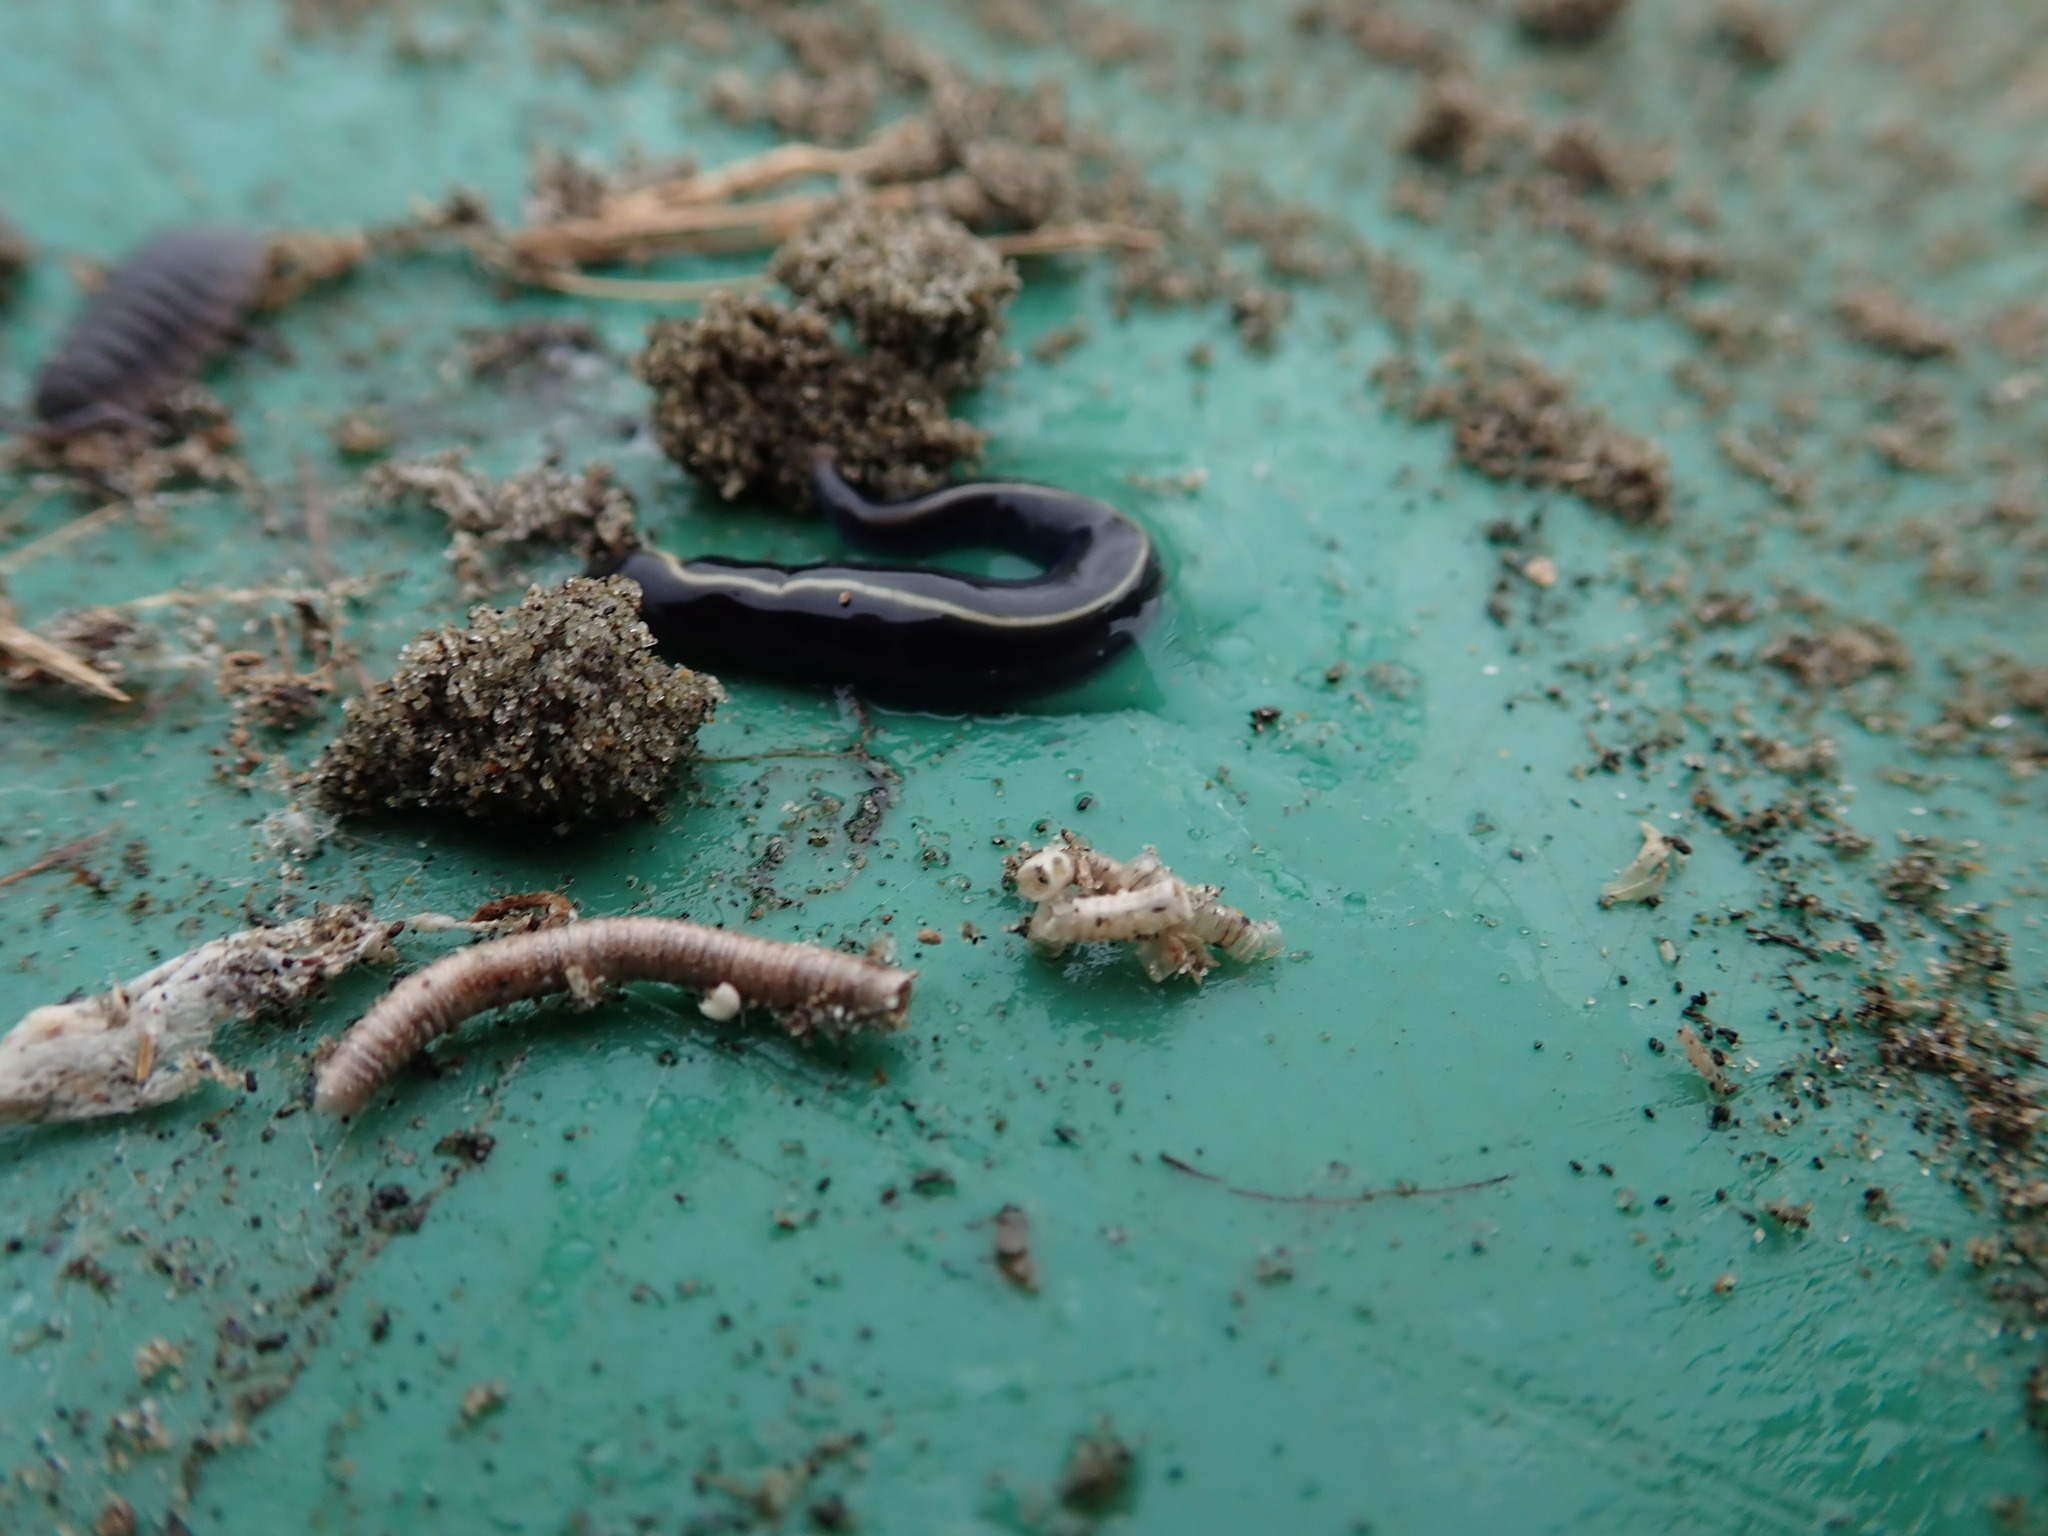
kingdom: Animalia
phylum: Platyhelminthes
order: Tricladida
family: Geoplanidae
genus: Caenoplana
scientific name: Caenoplana coerulea
